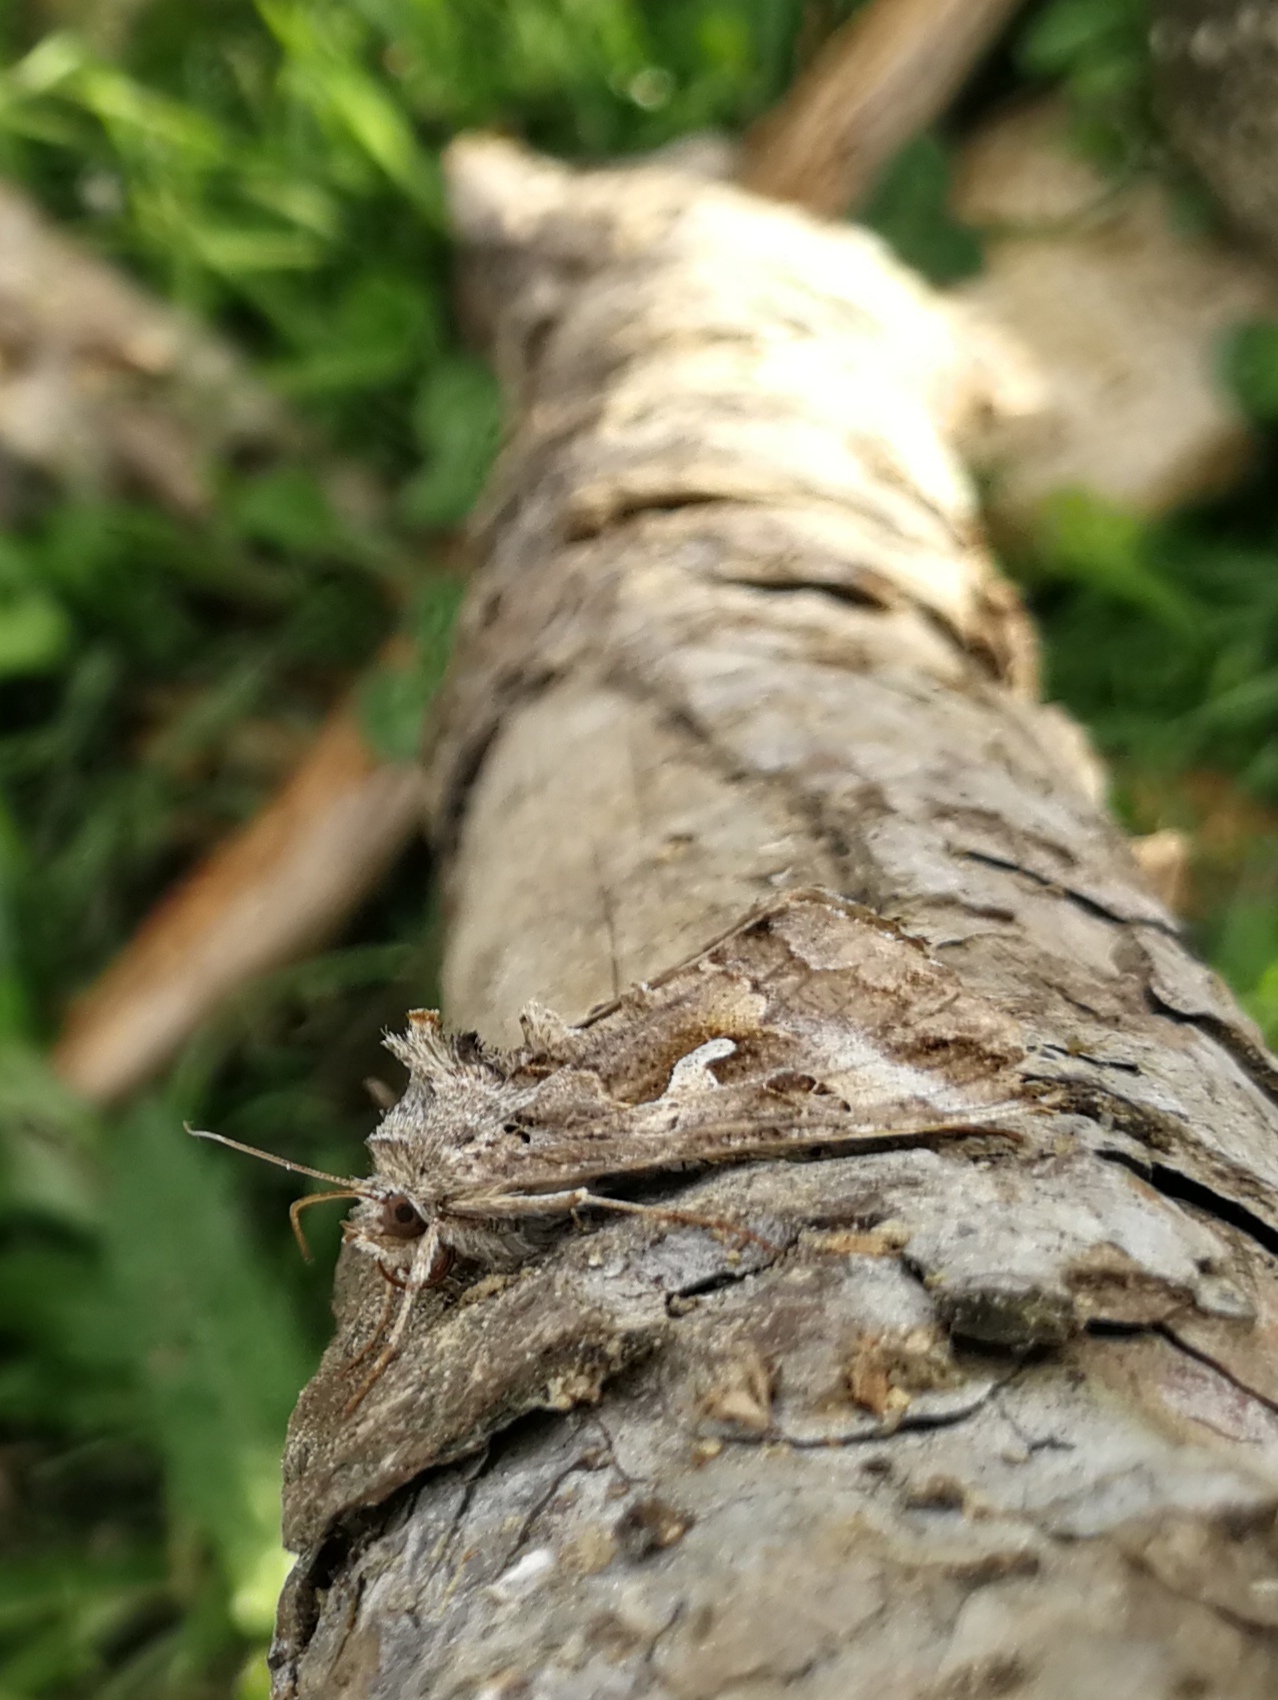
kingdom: Animalia
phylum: Arthropoda
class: Insecta
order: Lepidoptera
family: Noctuidae
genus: Autographa
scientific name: Autographa gamma
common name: Silver y
